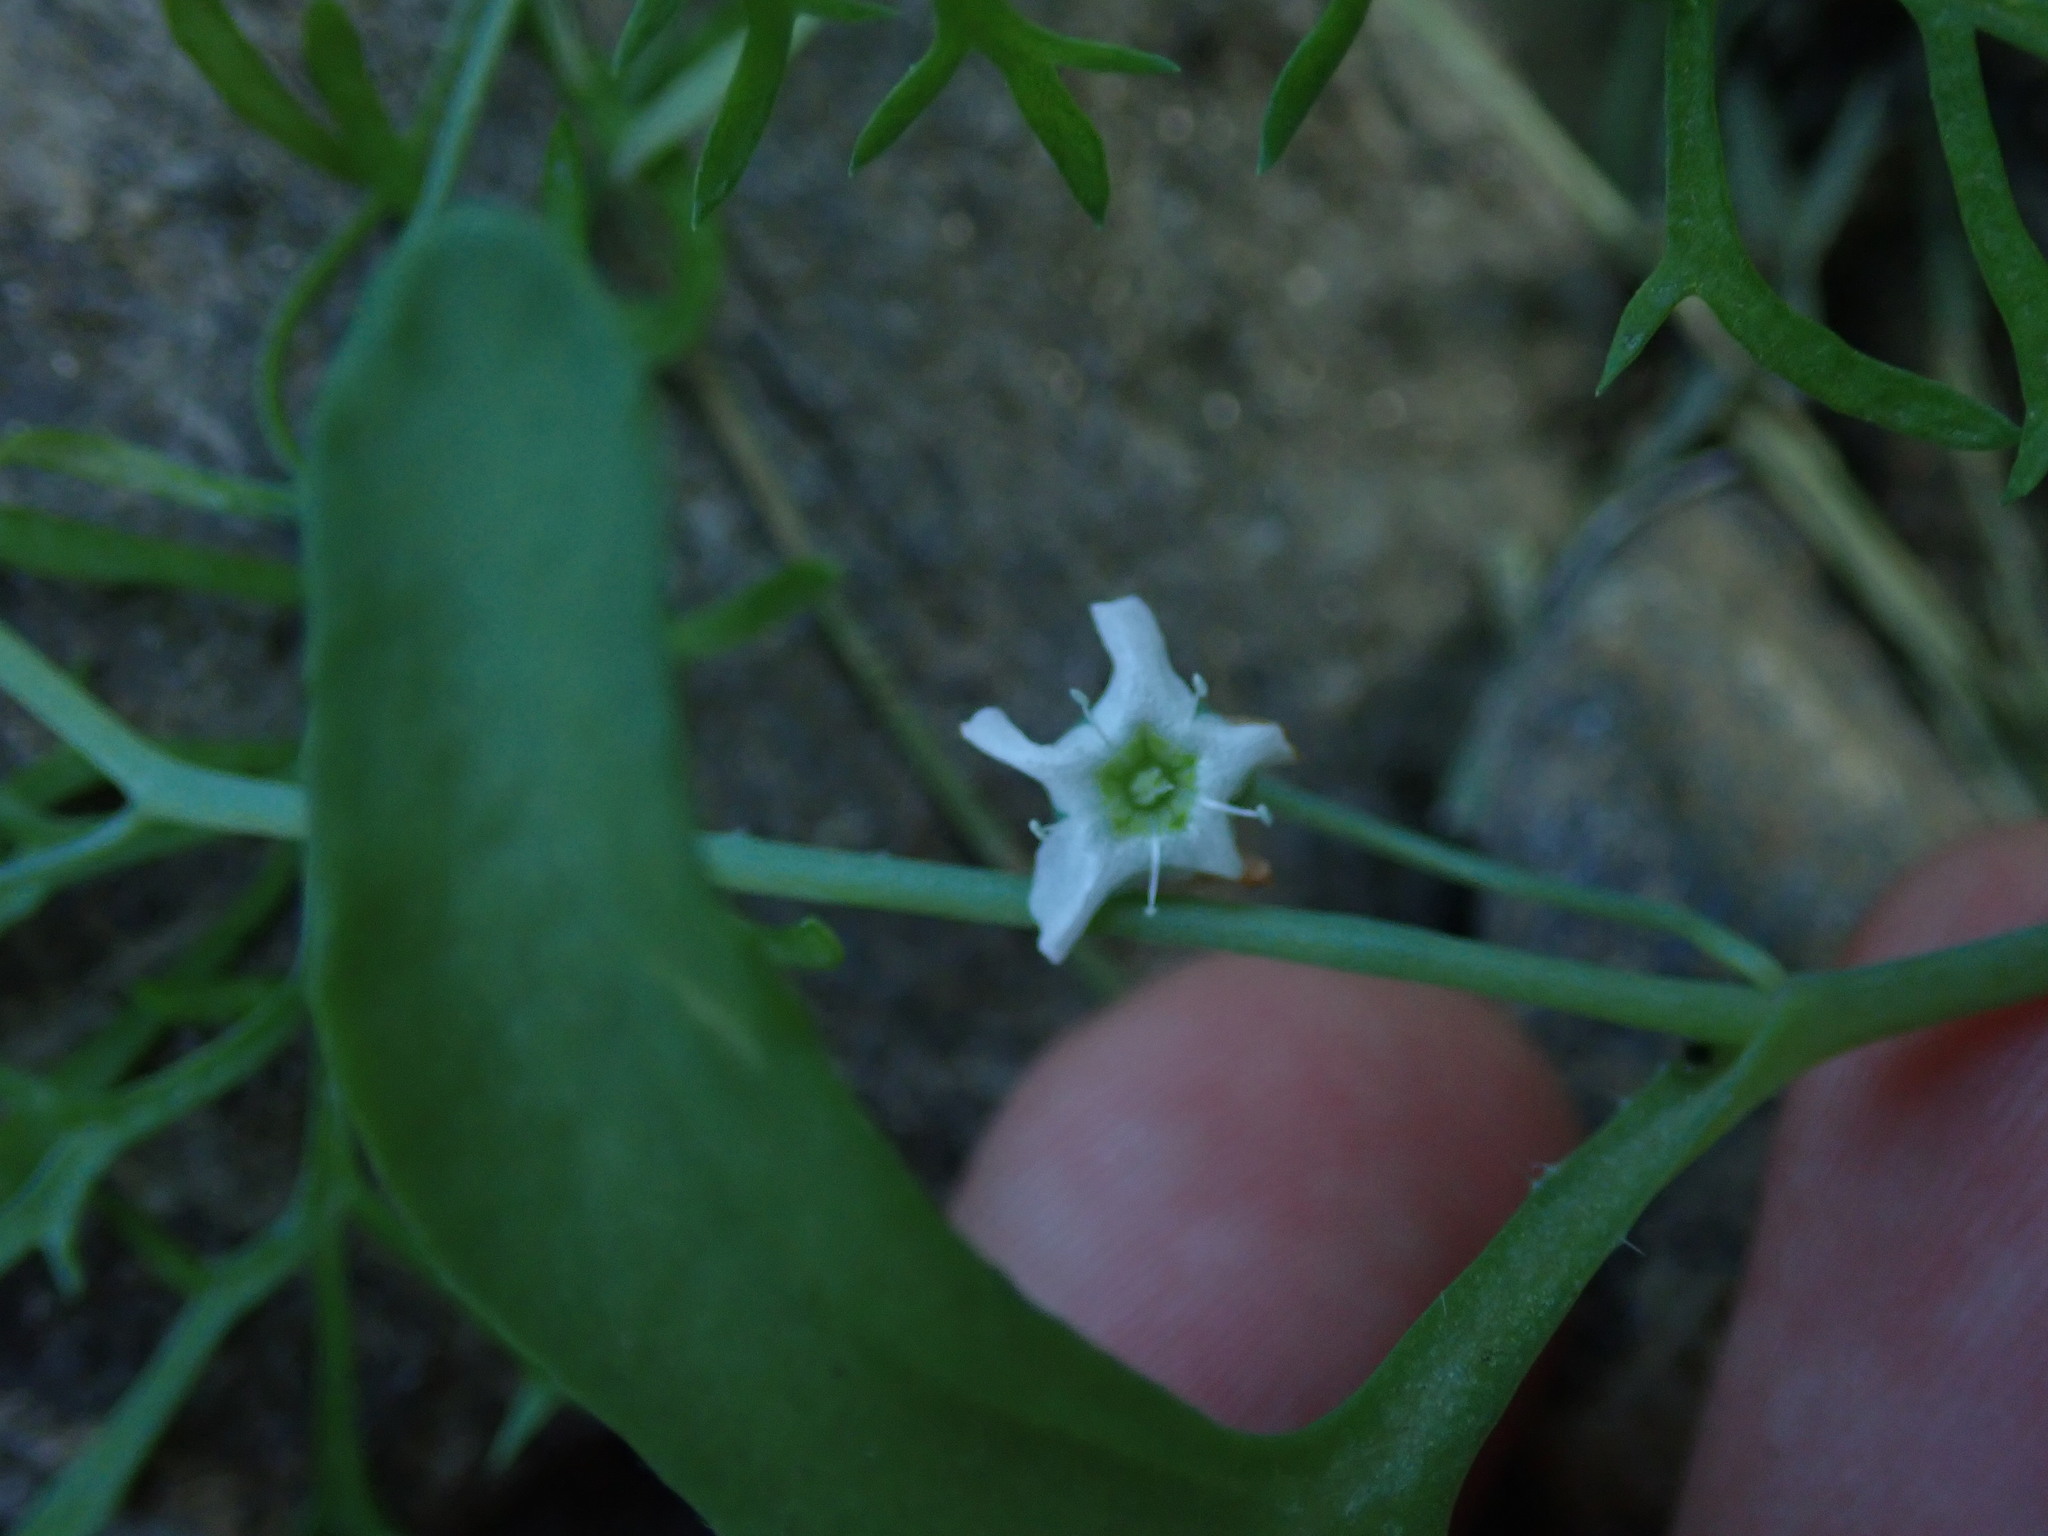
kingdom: Plantae
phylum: Tracheophyta
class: Magnoliopsida
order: Boraginales
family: Hydrophyllaceae
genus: Pholistoma
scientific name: Pholistoma membranaceum
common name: White fiesta-flower
